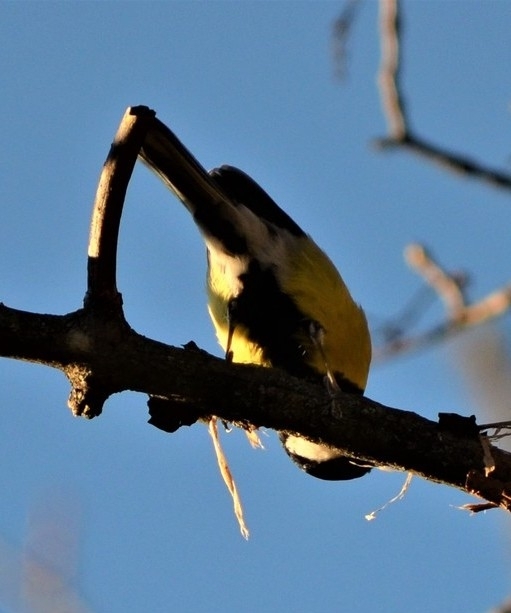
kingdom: Animalia
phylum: Chordata
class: Aves
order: Passeriformes
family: Paridae
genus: Parus
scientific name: Parus major
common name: Great tit
